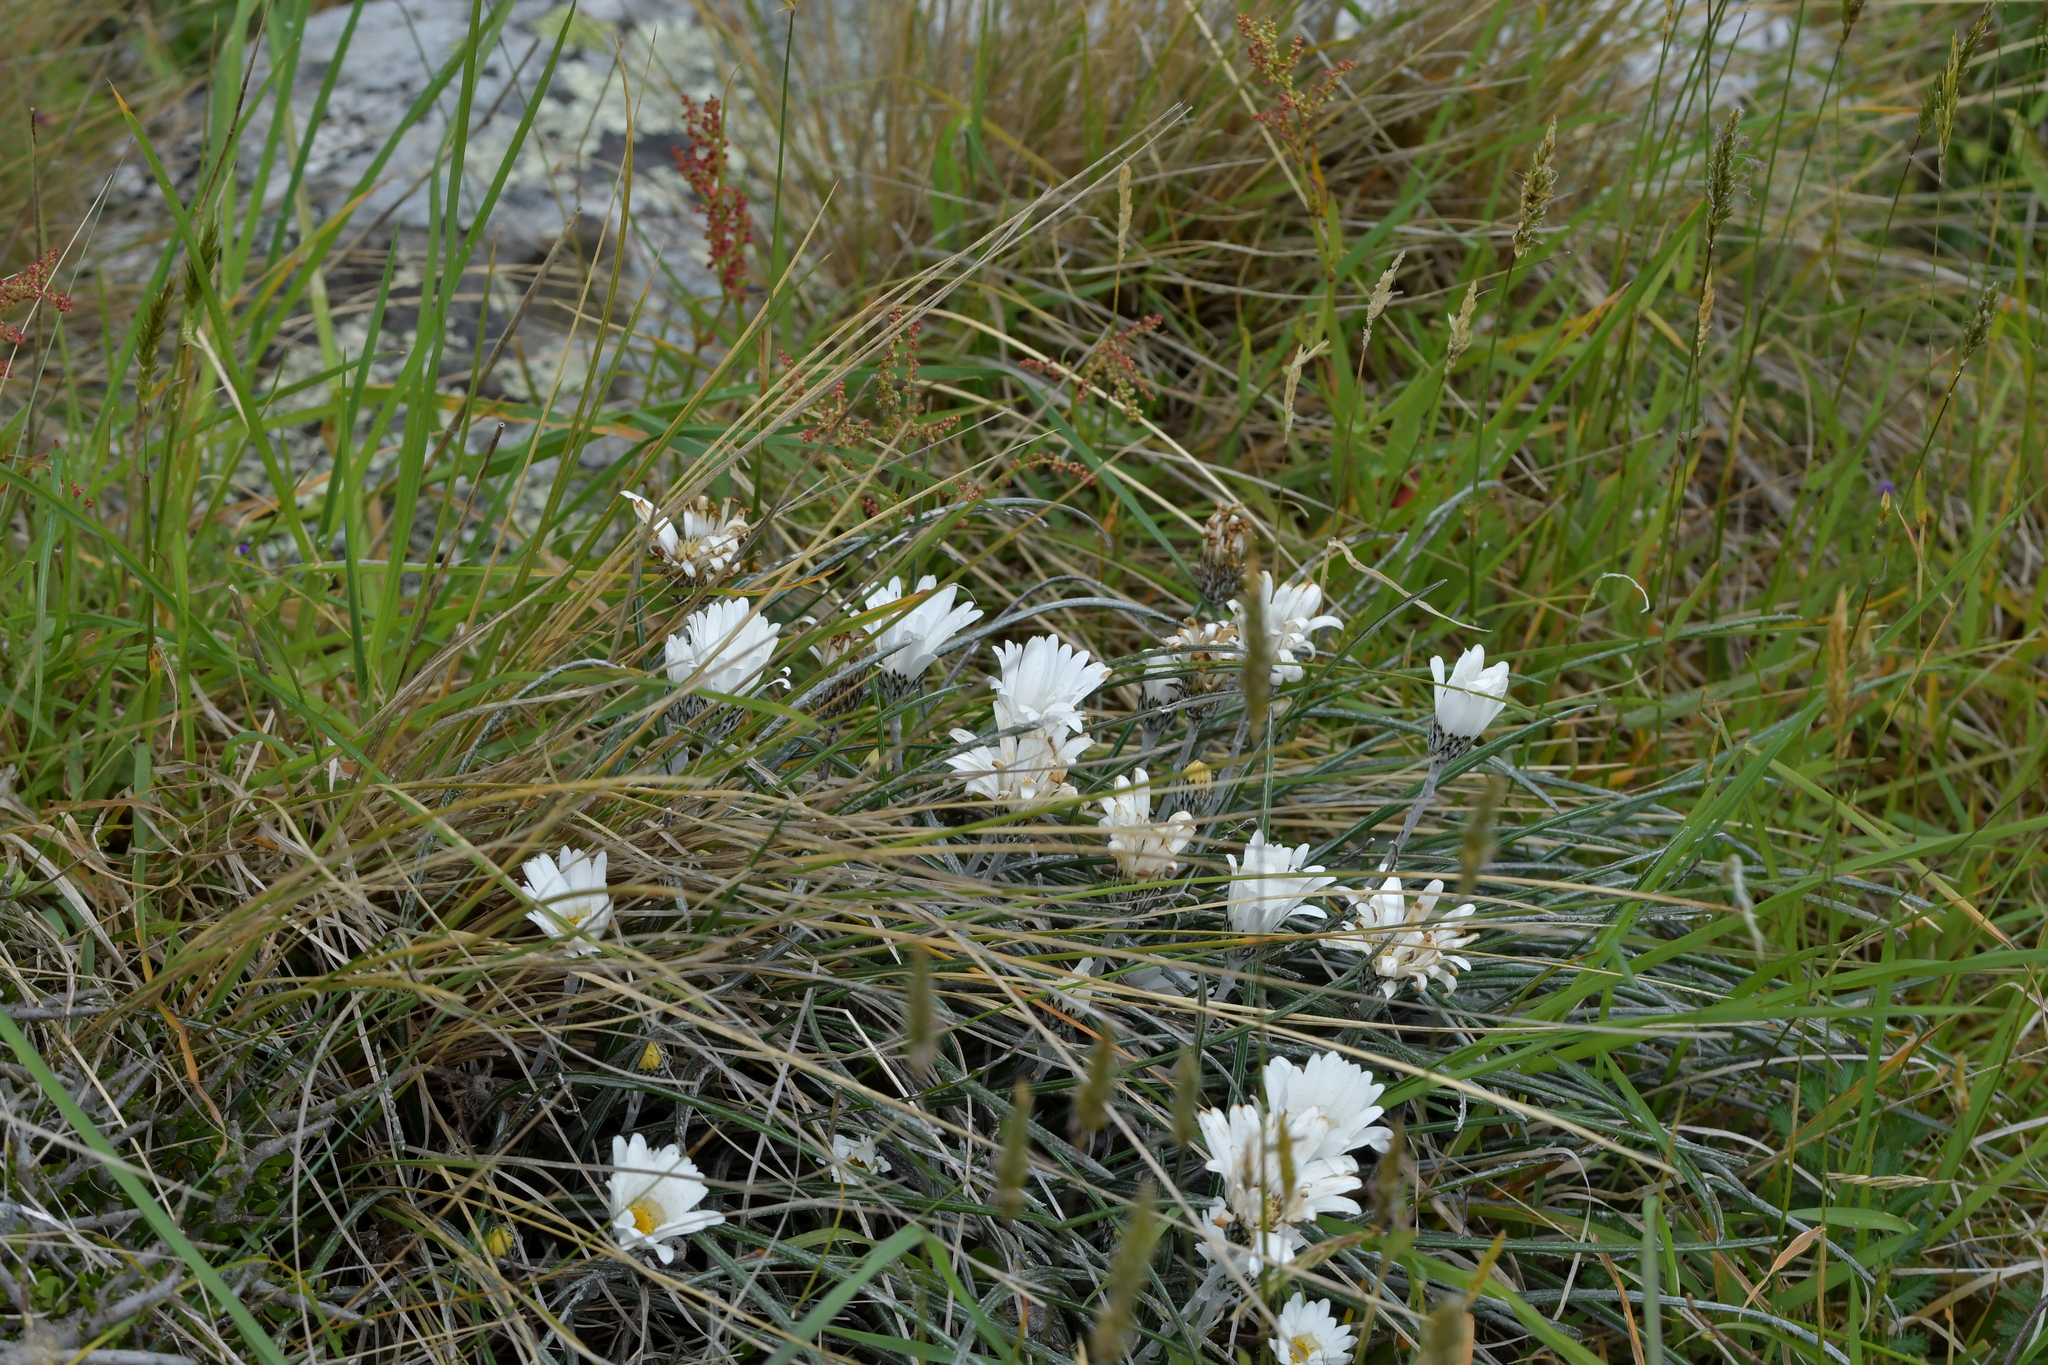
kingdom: Plantae
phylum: Tracheophyta
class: Magnoliopsida
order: Asterales
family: Asteraceae
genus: Celmisia
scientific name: Celmisia gracilenta
